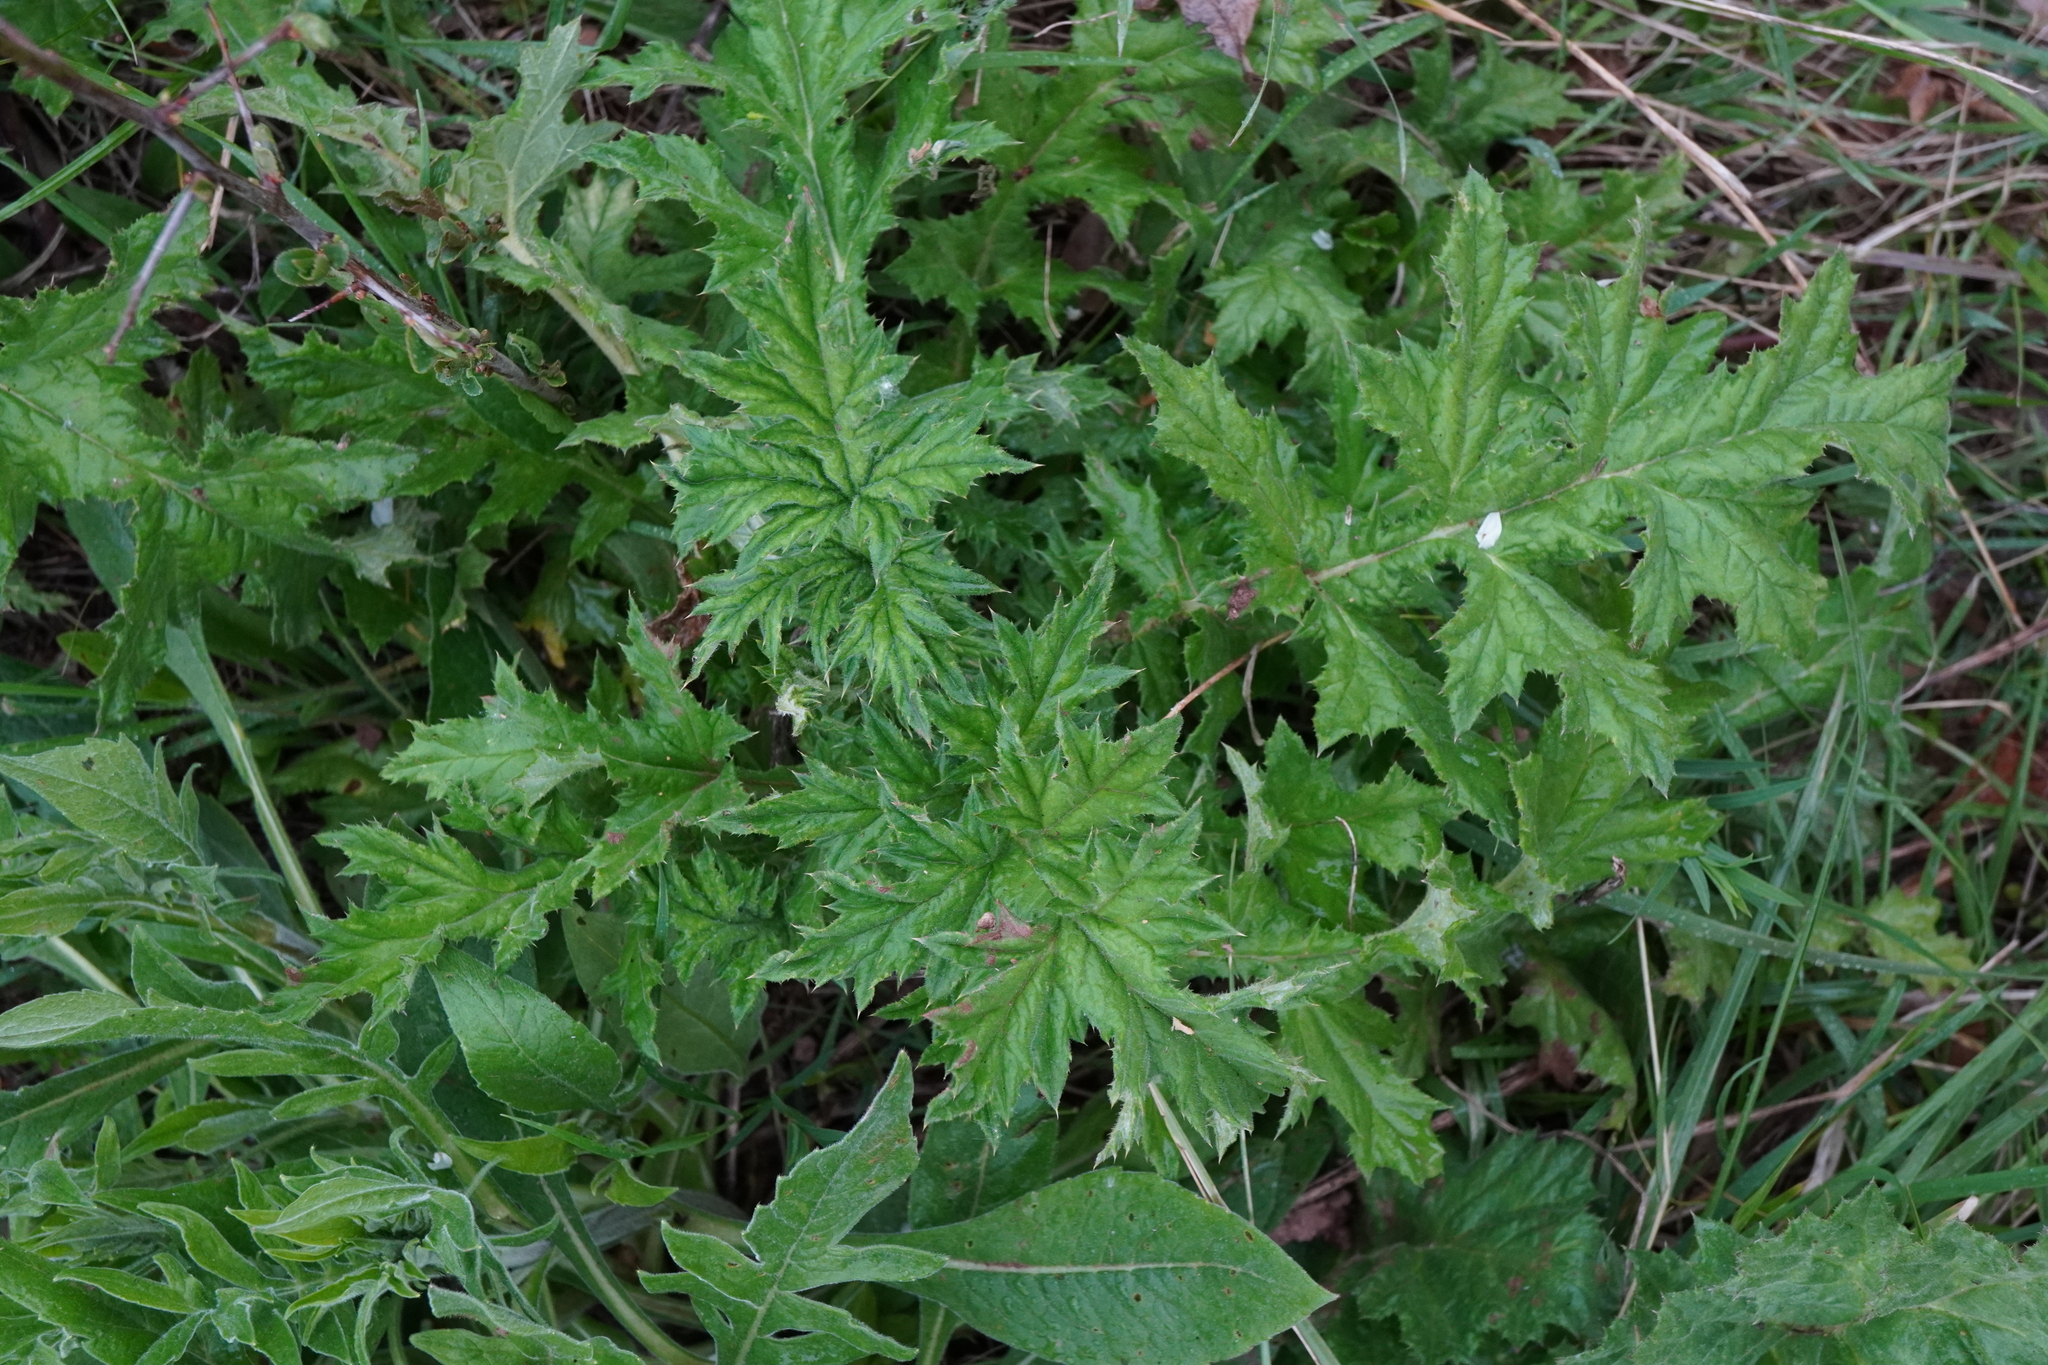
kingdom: Plantae
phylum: Tracheophyta
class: Magnoliopsida
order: Asterales
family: Asteraceae
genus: Echinops
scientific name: Echinops sphaerocephalus
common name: Glandular globe-thistle
